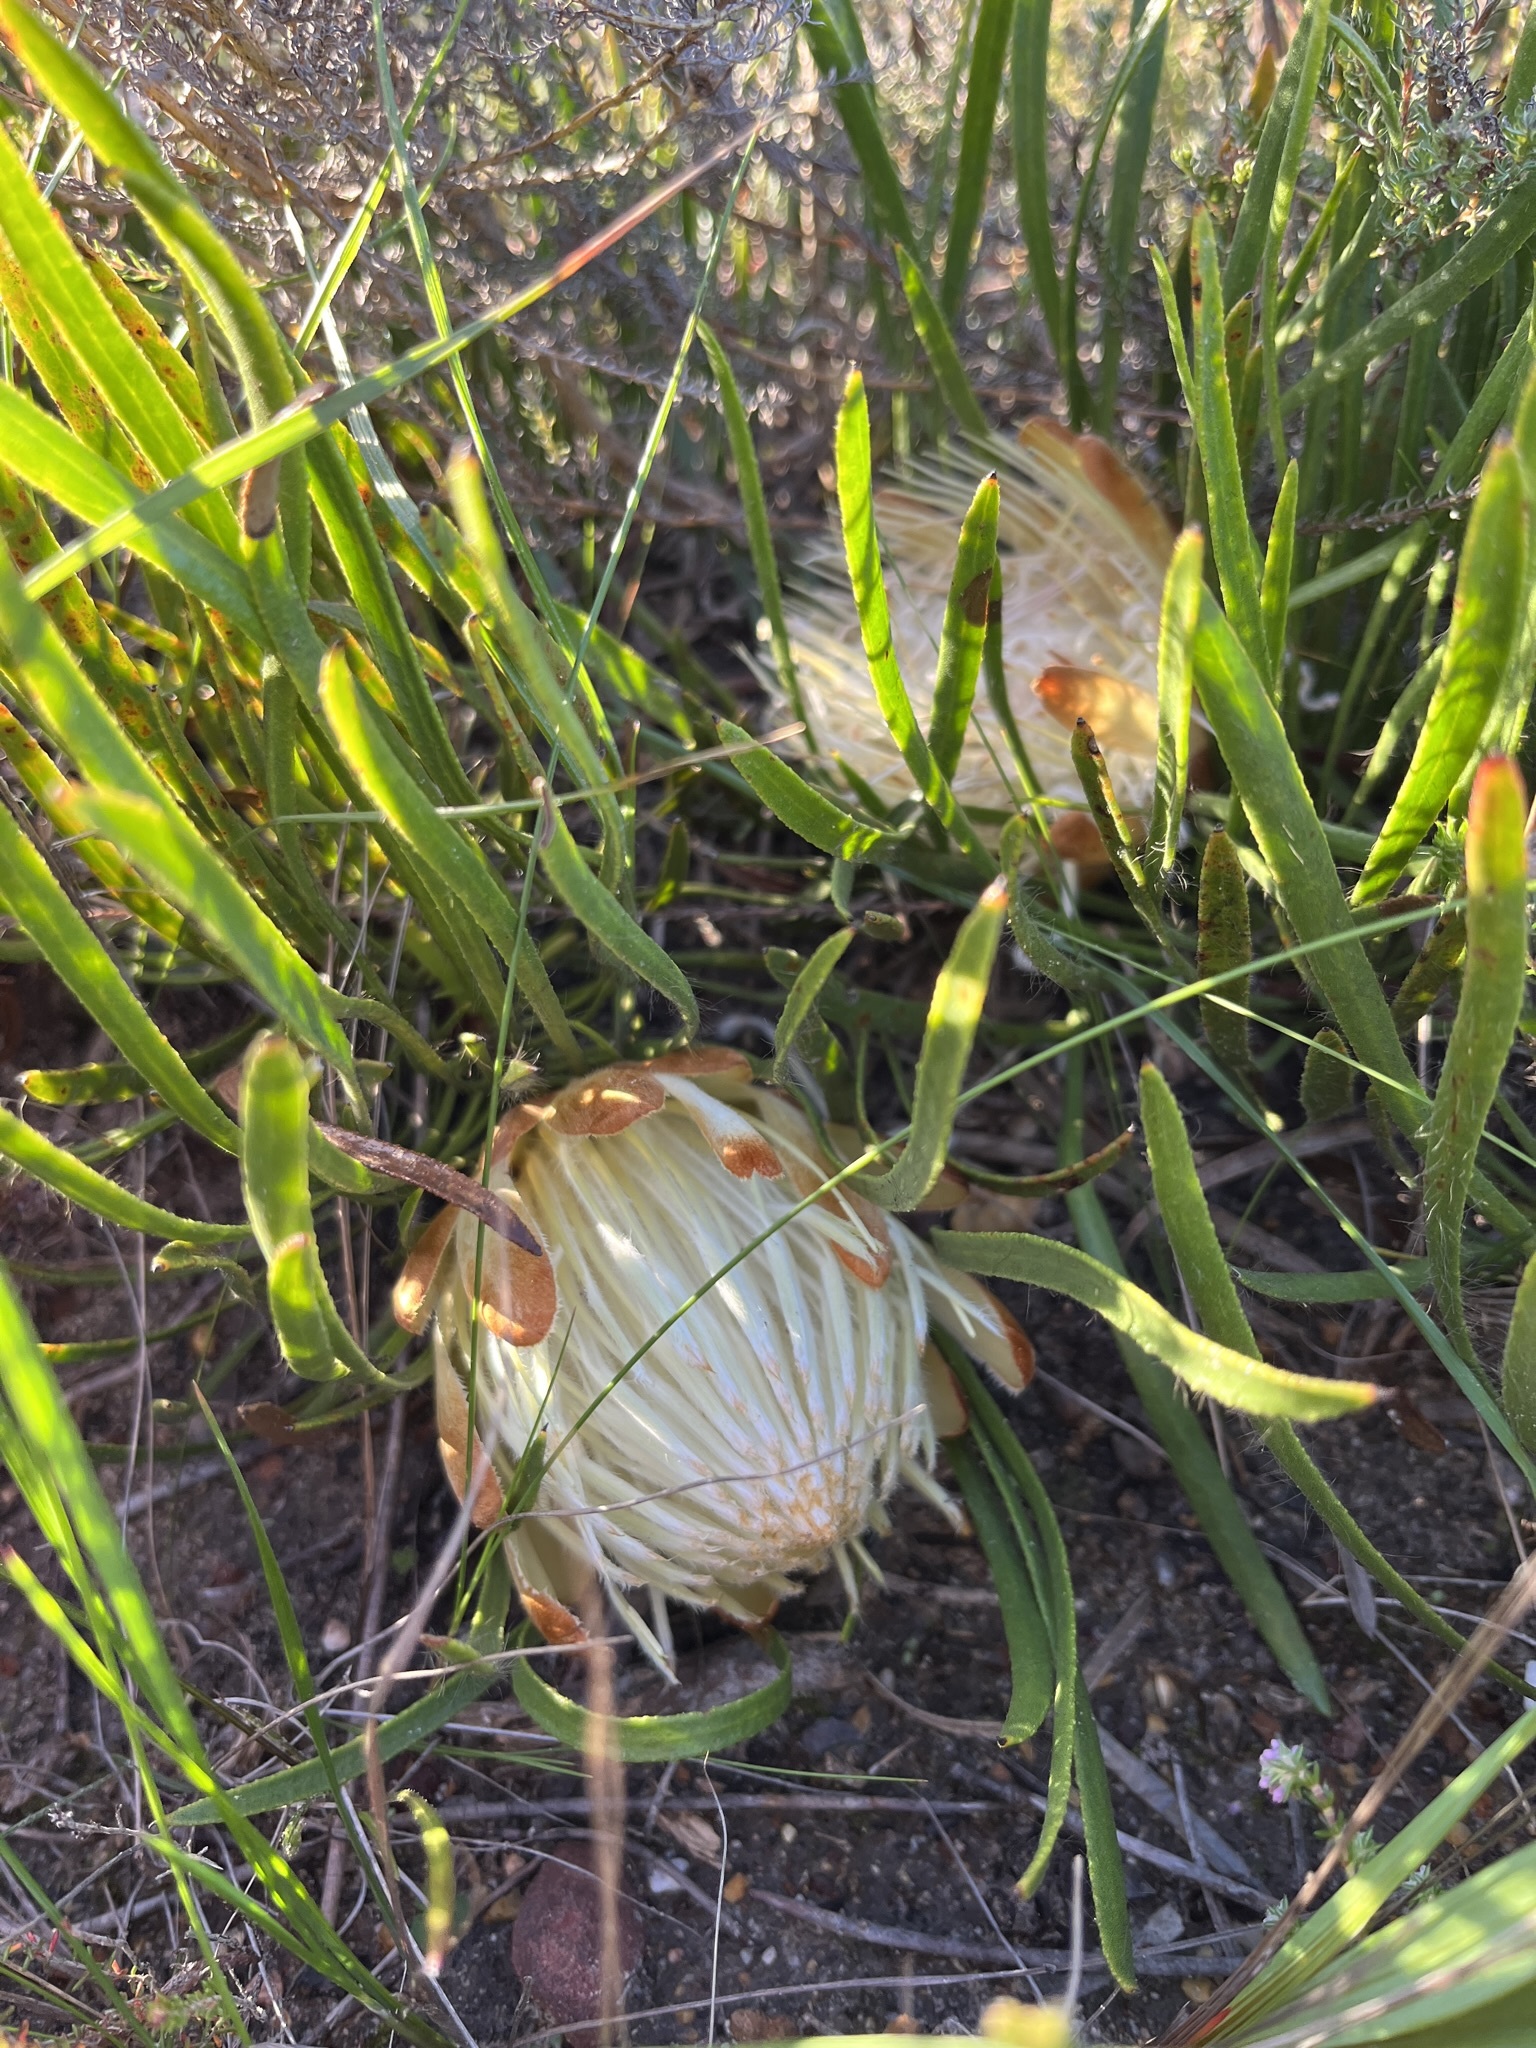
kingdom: Plantae
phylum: Tracheophyta
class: Magnoliopsida
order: Proteales
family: Proteaceae
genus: Protea
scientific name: Protea aspera
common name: Rough-leaf sugarbush
